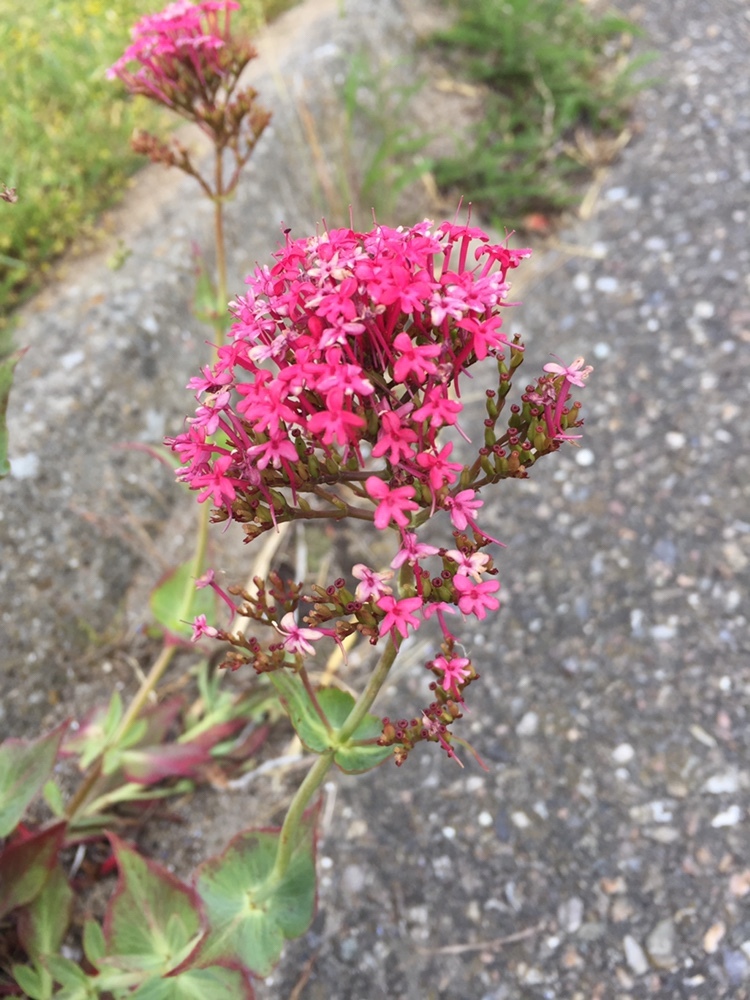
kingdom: Plantae
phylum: Tracheophyta
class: Magnoliopsida
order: Dipsacales
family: Caprifoliaceae
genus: Centranthus
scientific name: Centranthus ruber
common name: Red valerian
